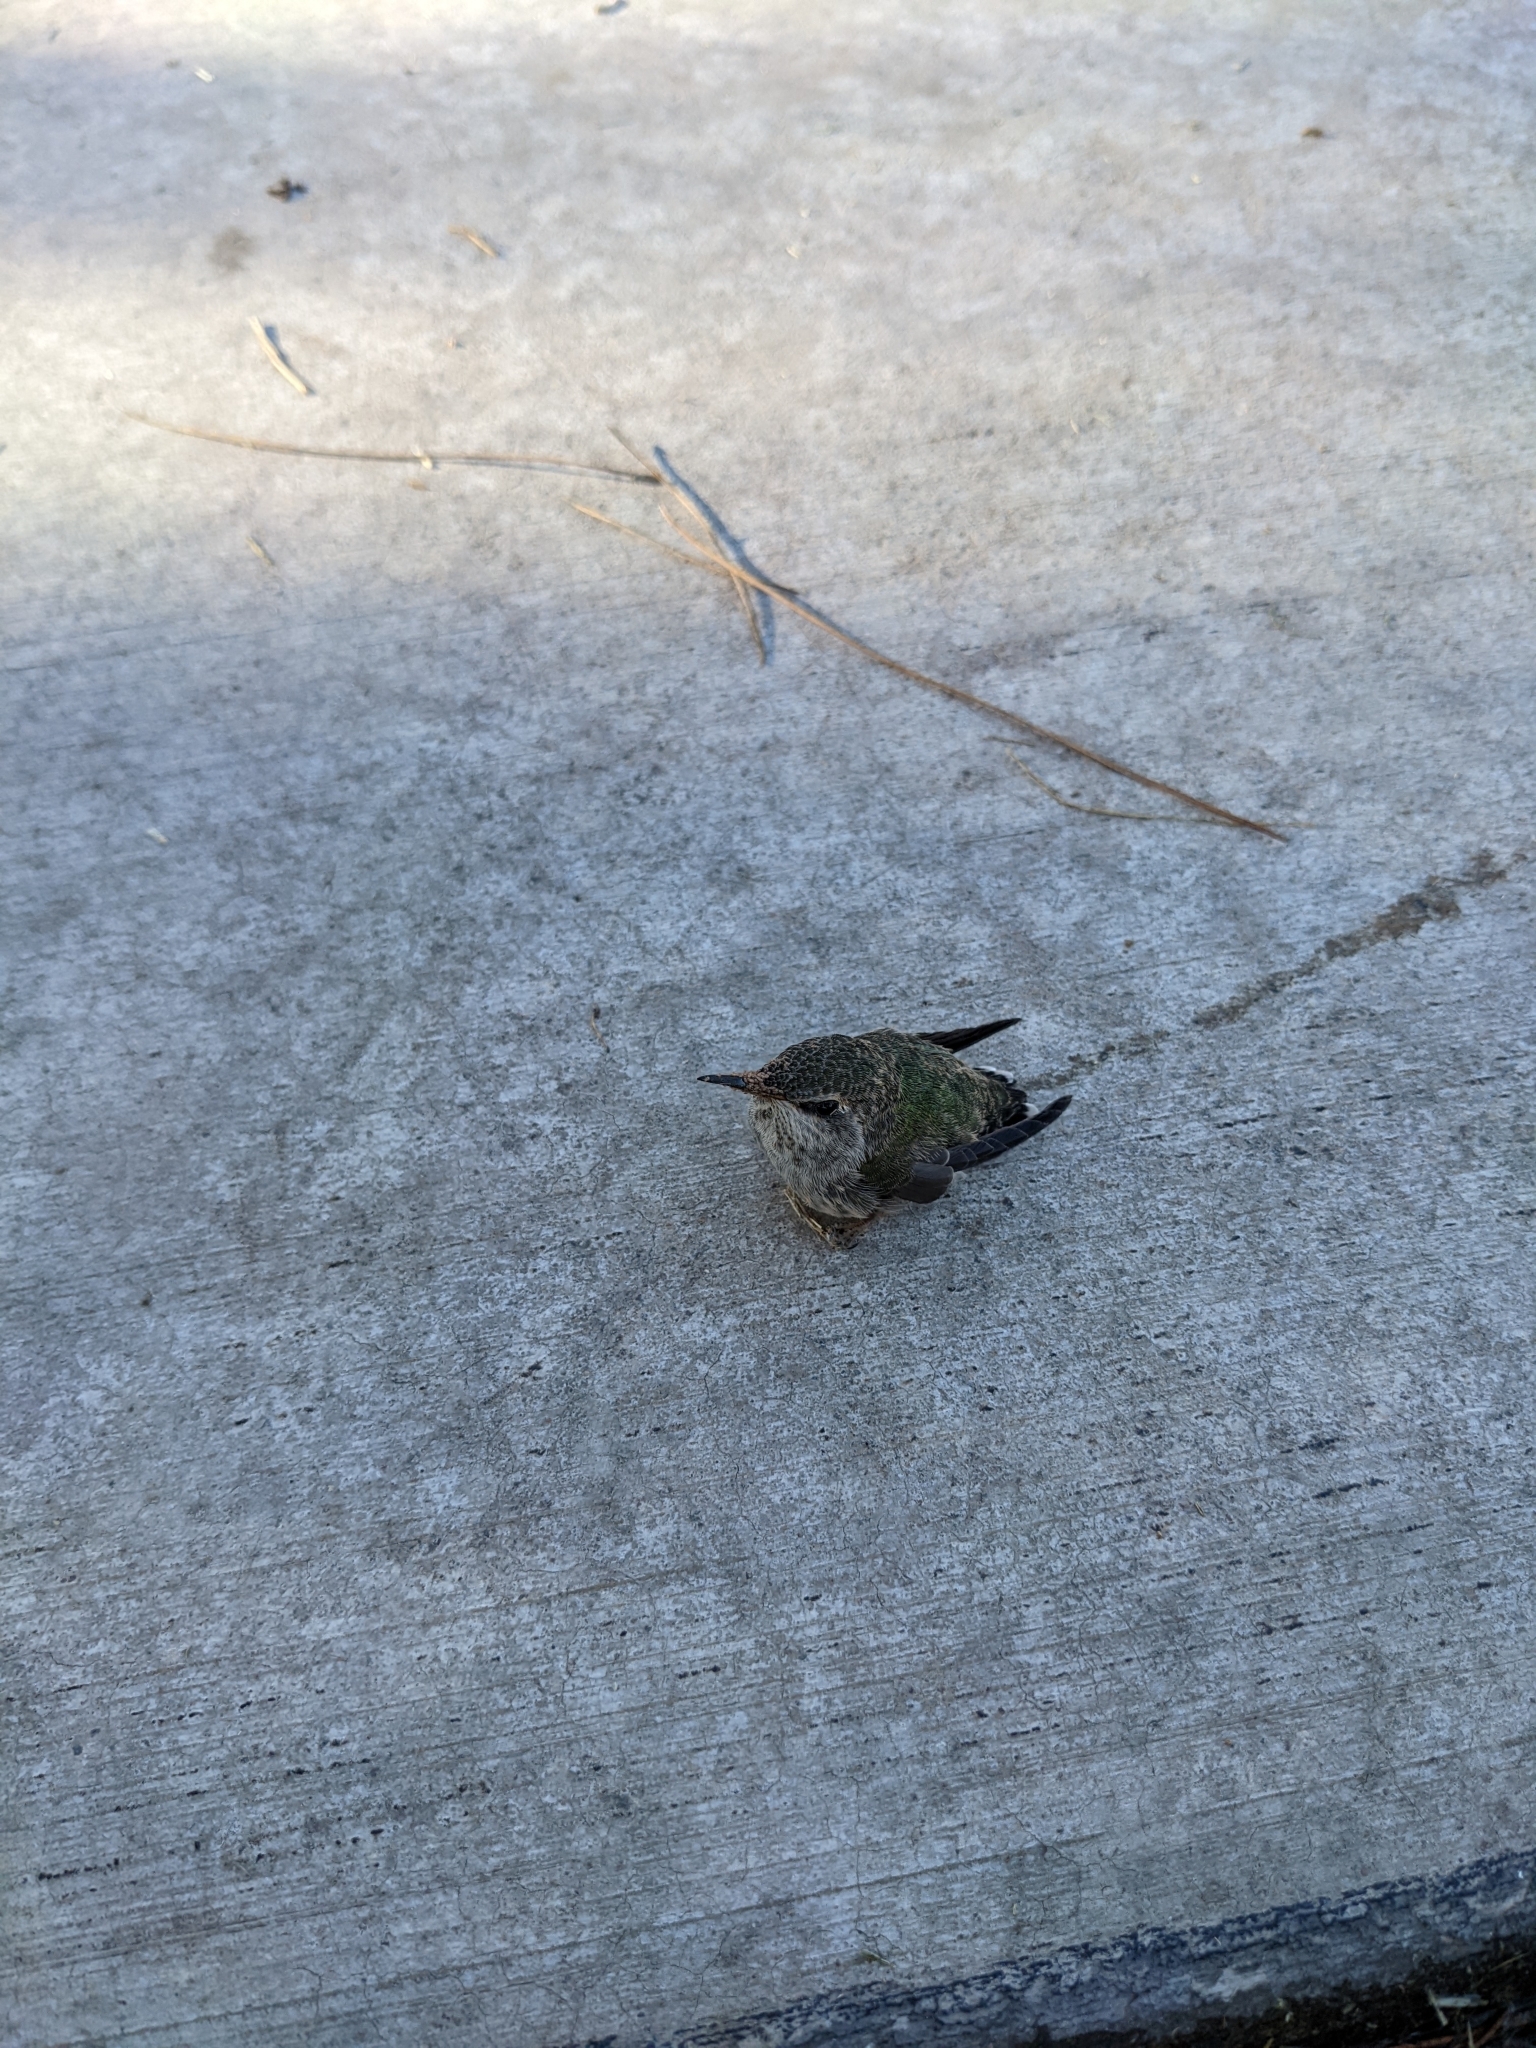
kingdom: Animalia
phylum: Chordata
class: Aves
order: Apodiformes
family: Trochilidae
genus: Calypte
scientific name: Calypte anna
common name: Anna's hummingbird
